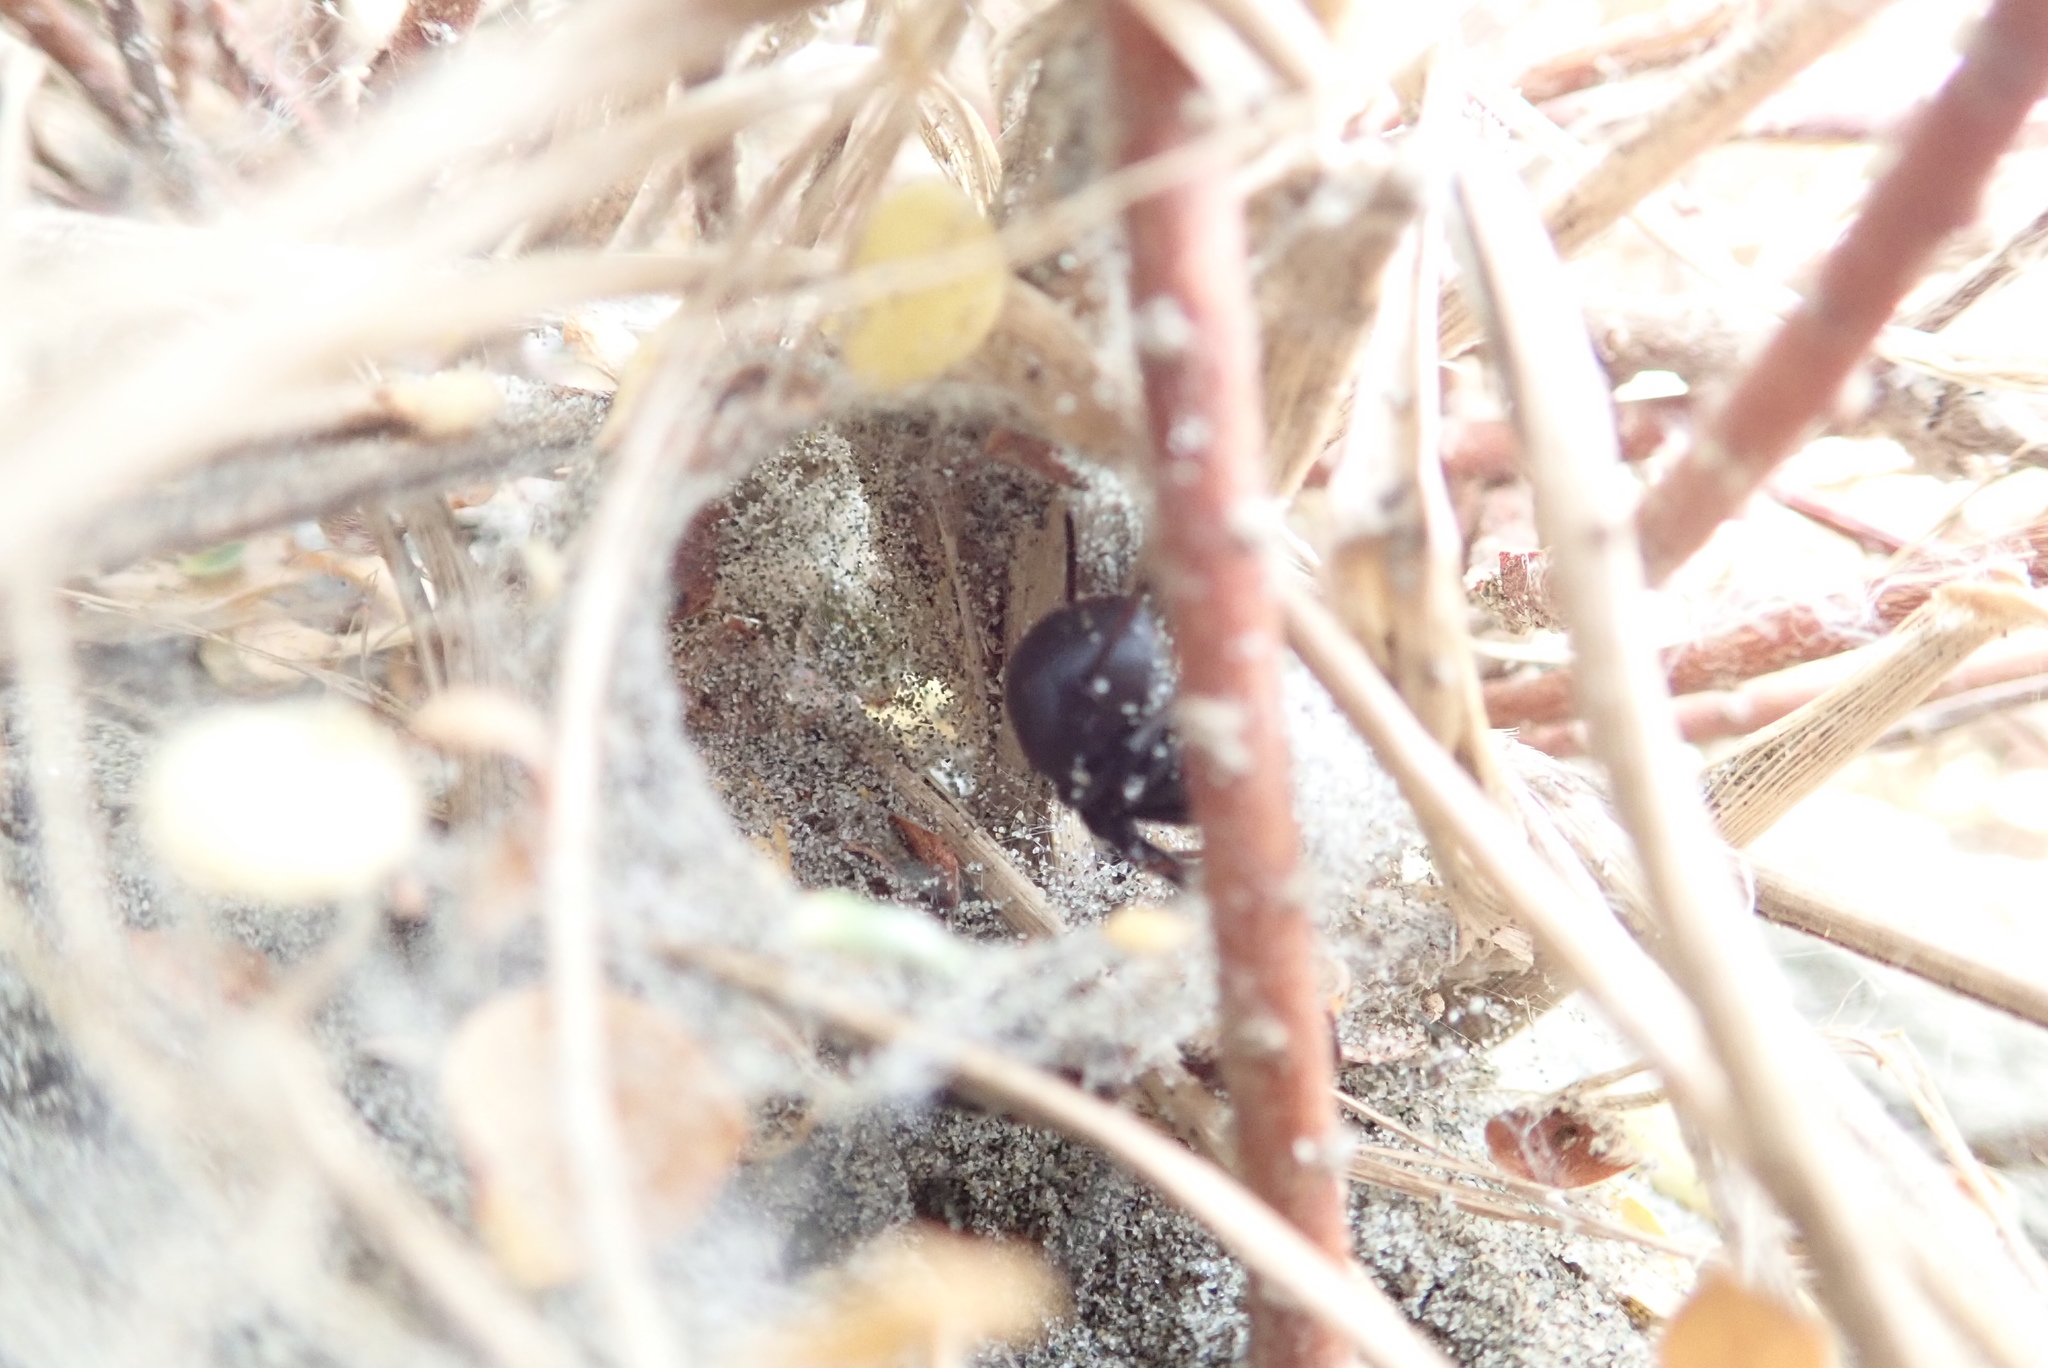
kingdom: Animalia
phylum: Arthropoda
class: Arachnida
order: Araneae
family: Theridiidae
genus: Latrodectus
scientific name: Latrodectus katipo
